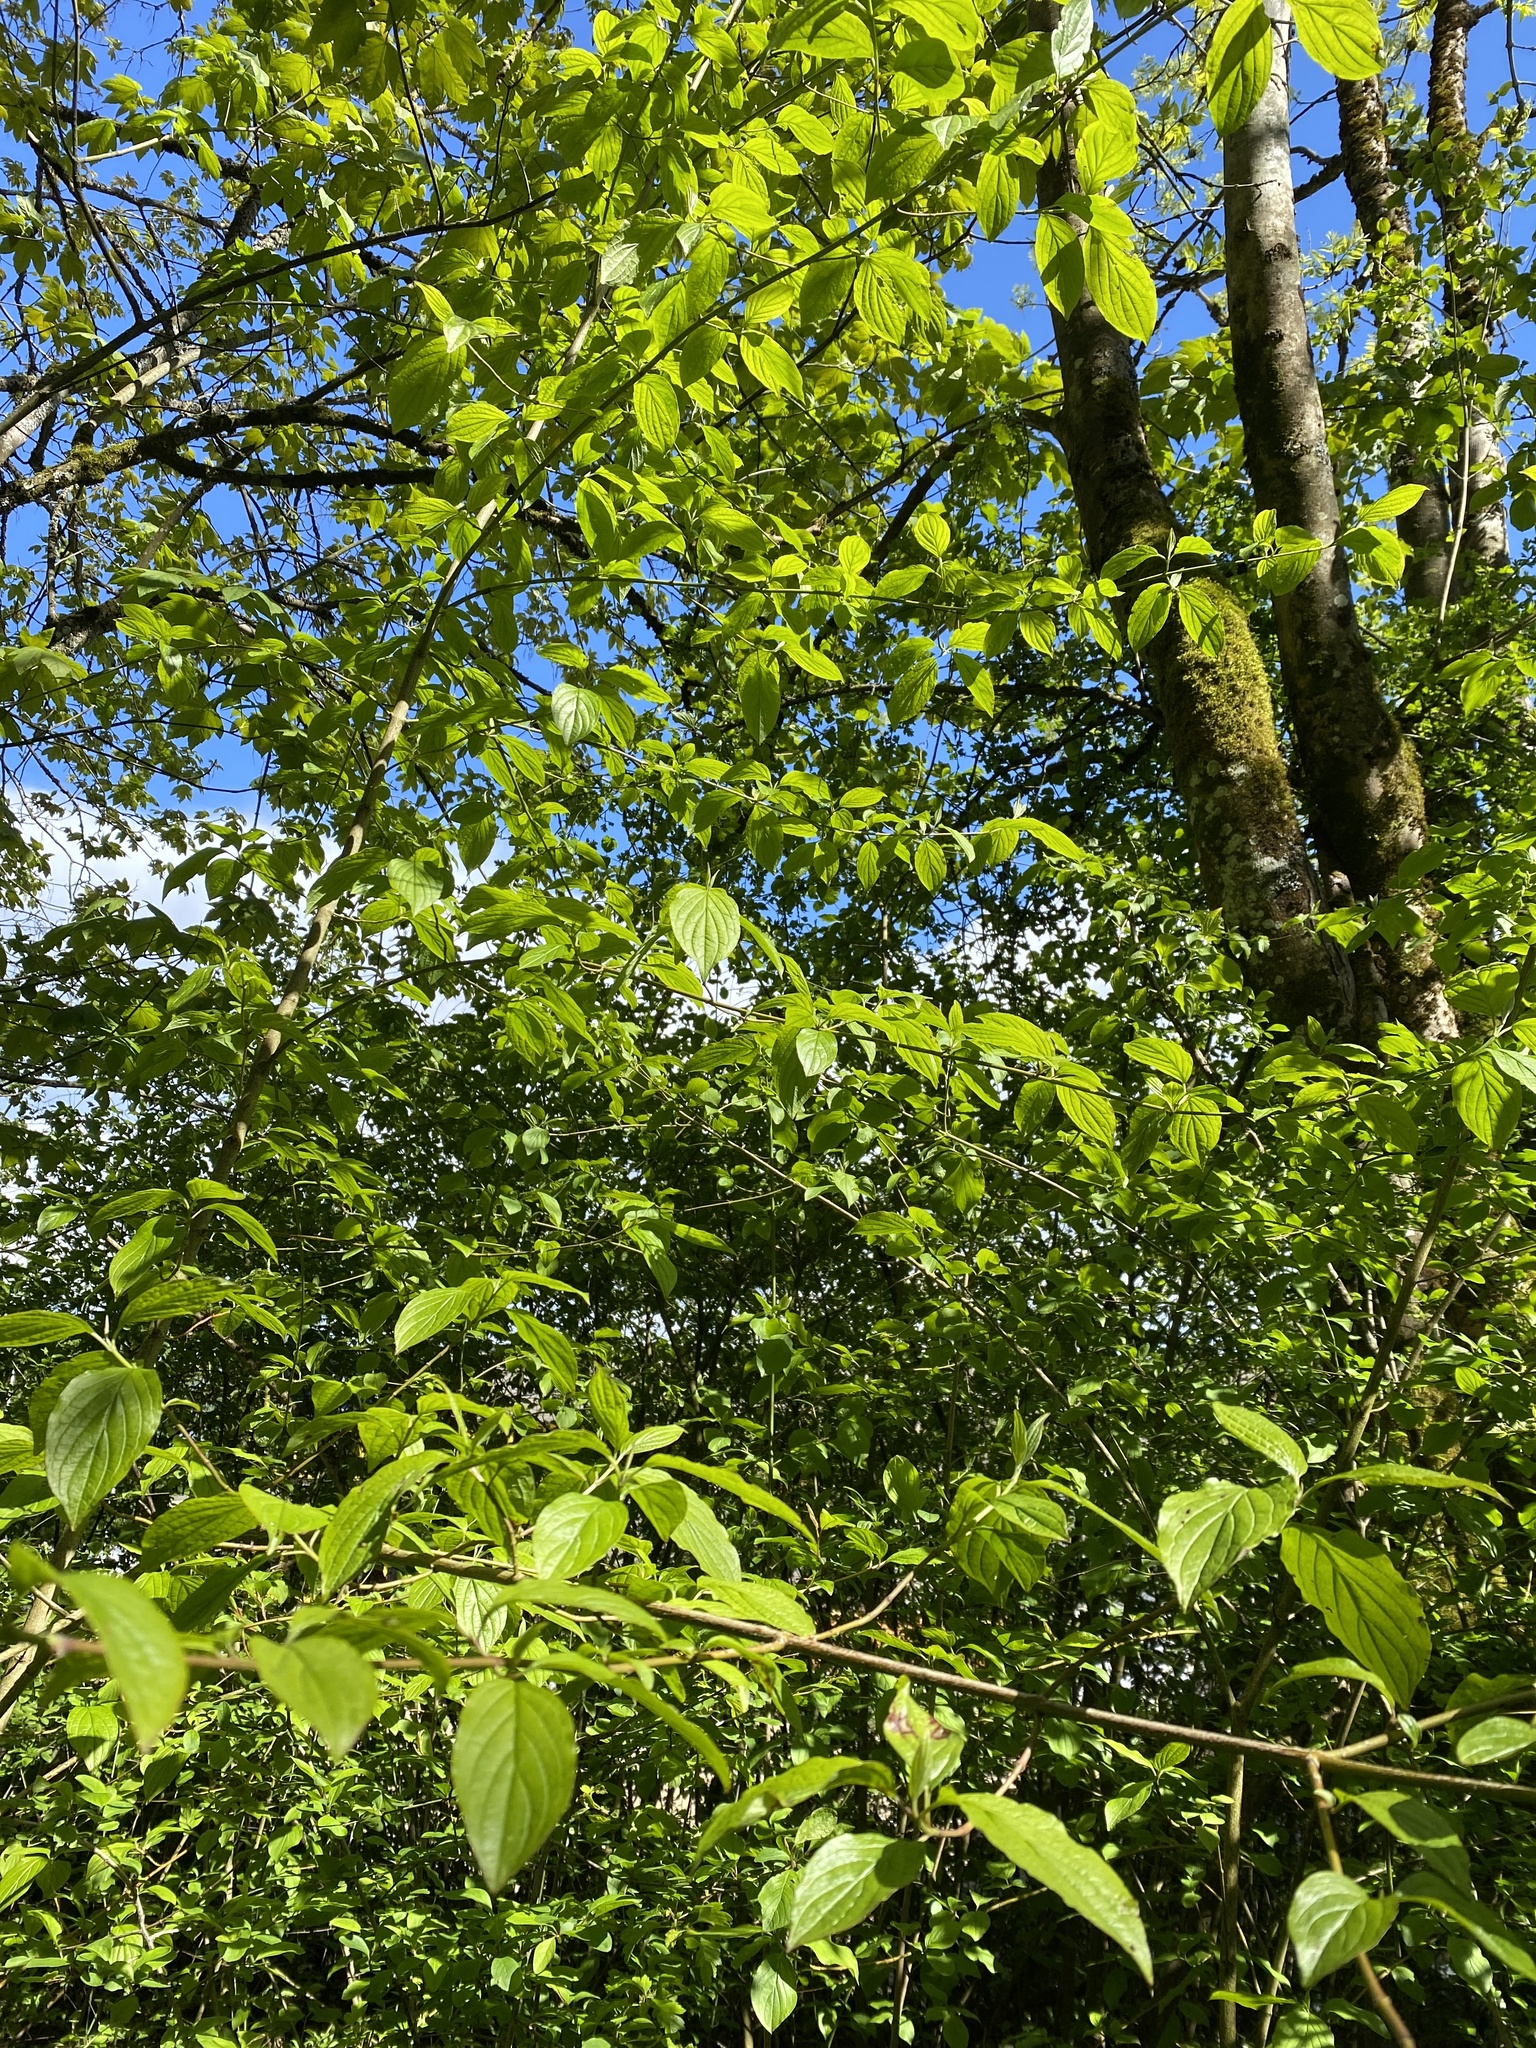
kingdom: Plantae
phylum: Tracheophyta
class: Magnoliopsida
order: Cornales
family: Cornaceae
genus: Cornus
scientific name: Cornus sanguinea
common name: Dogwood
